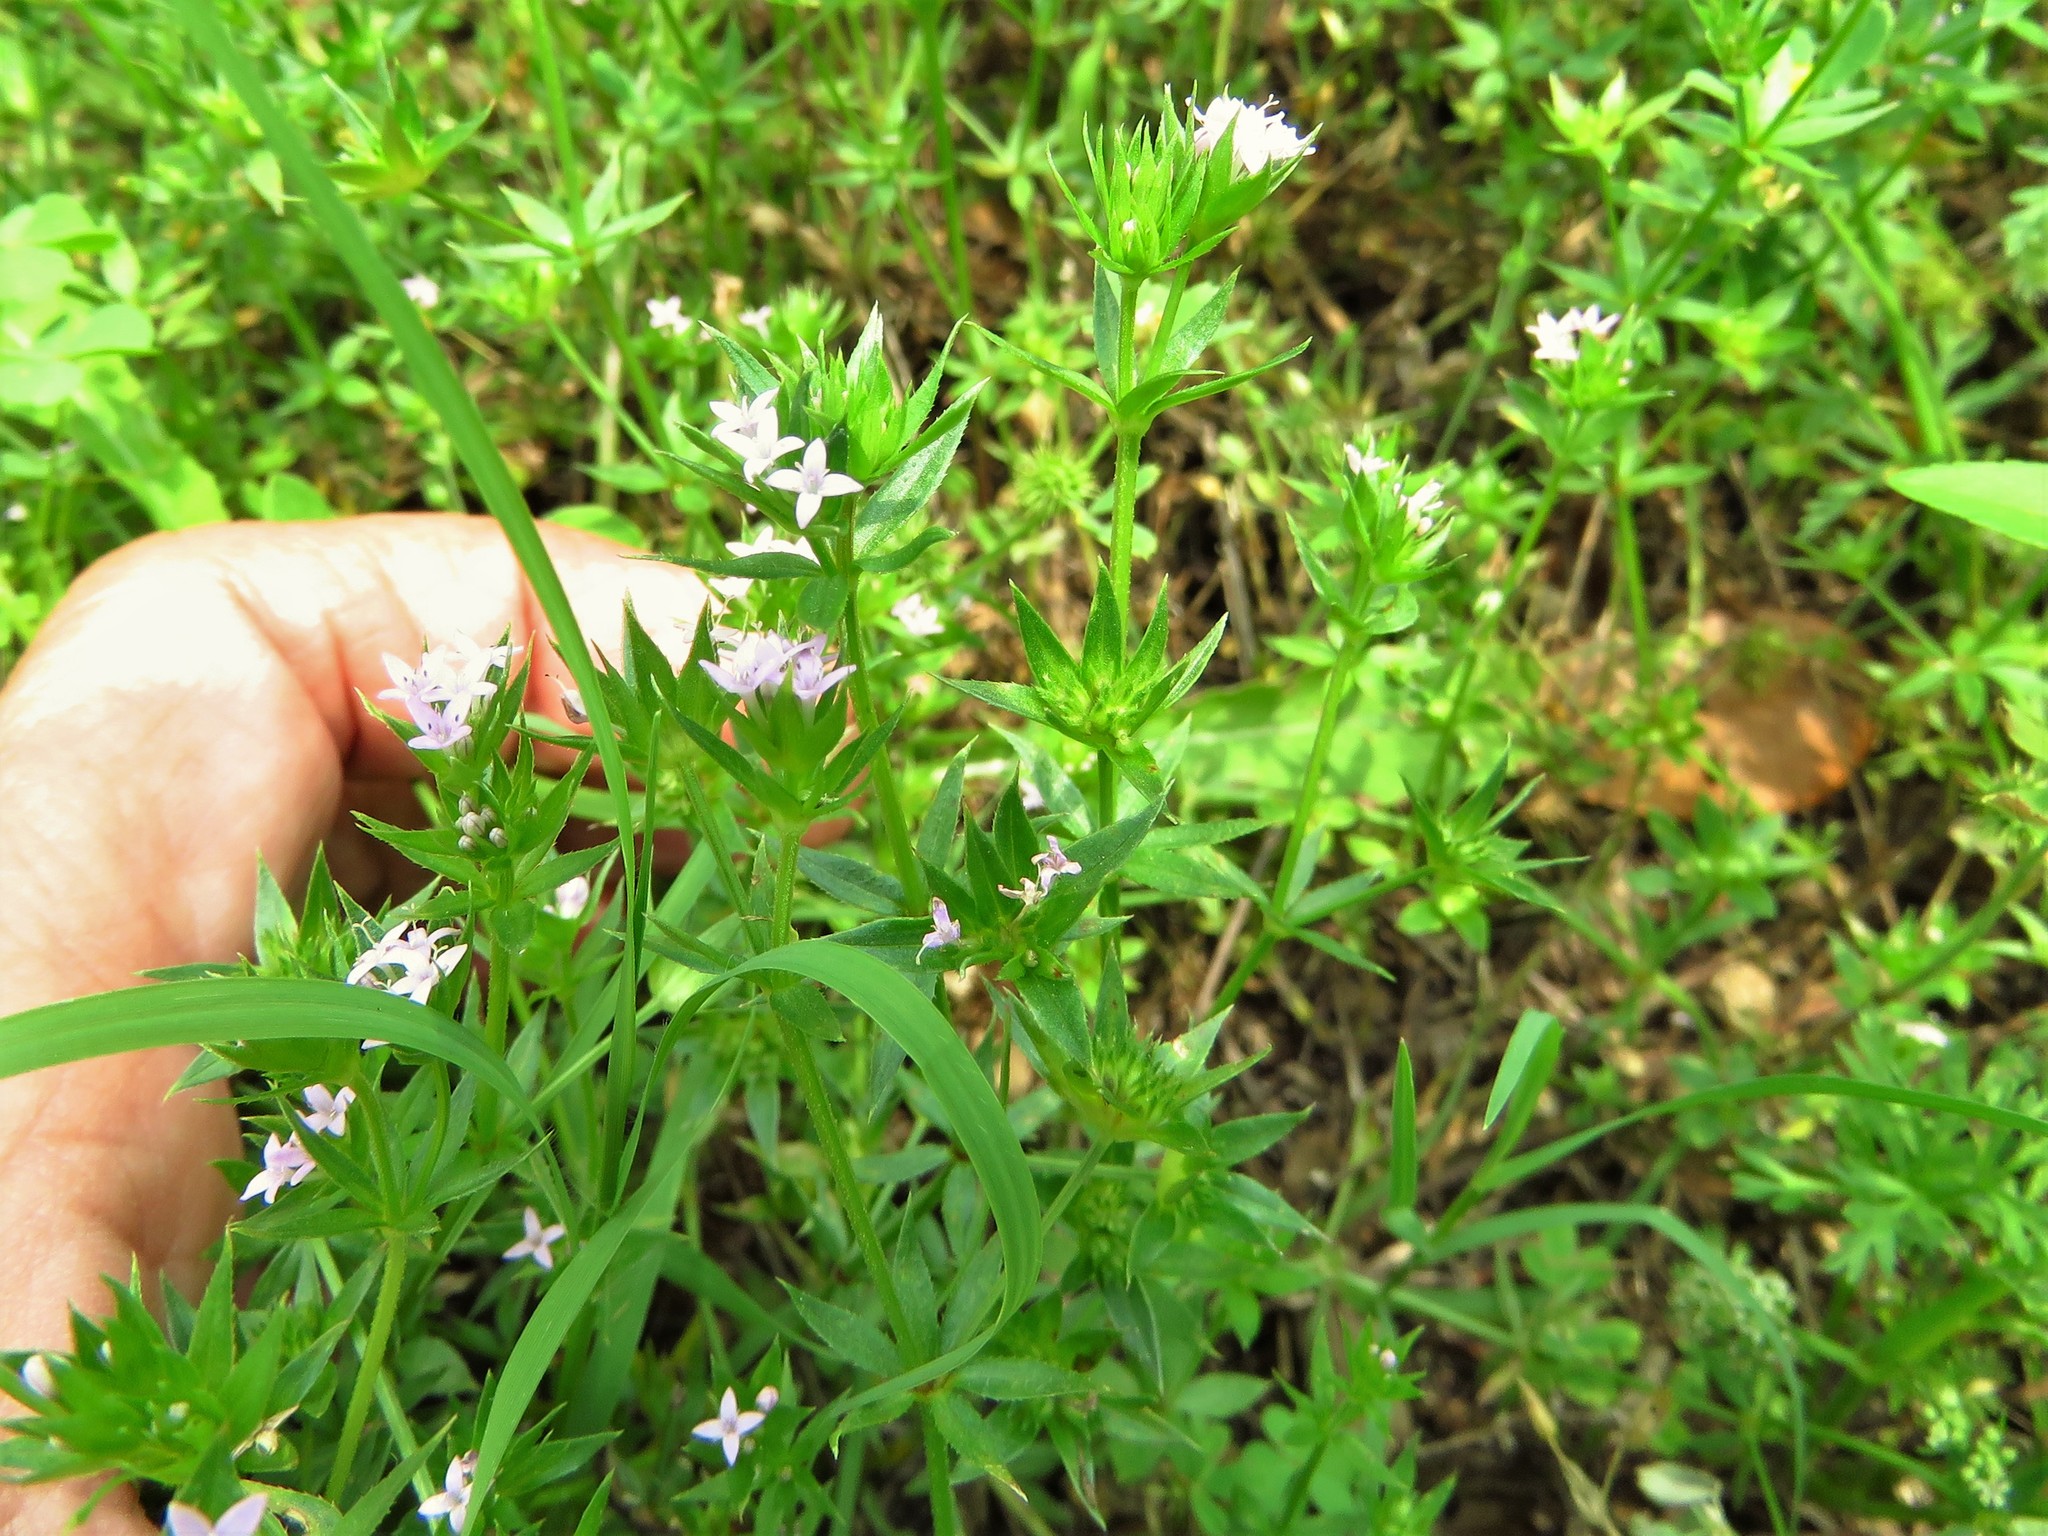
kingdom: Plantae
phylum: Tracheophyta
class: Magnoliopsida
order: Gentianales
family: Rubiaceae
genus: Sherardia
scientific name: Sherardia arvensis
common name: Field madder
